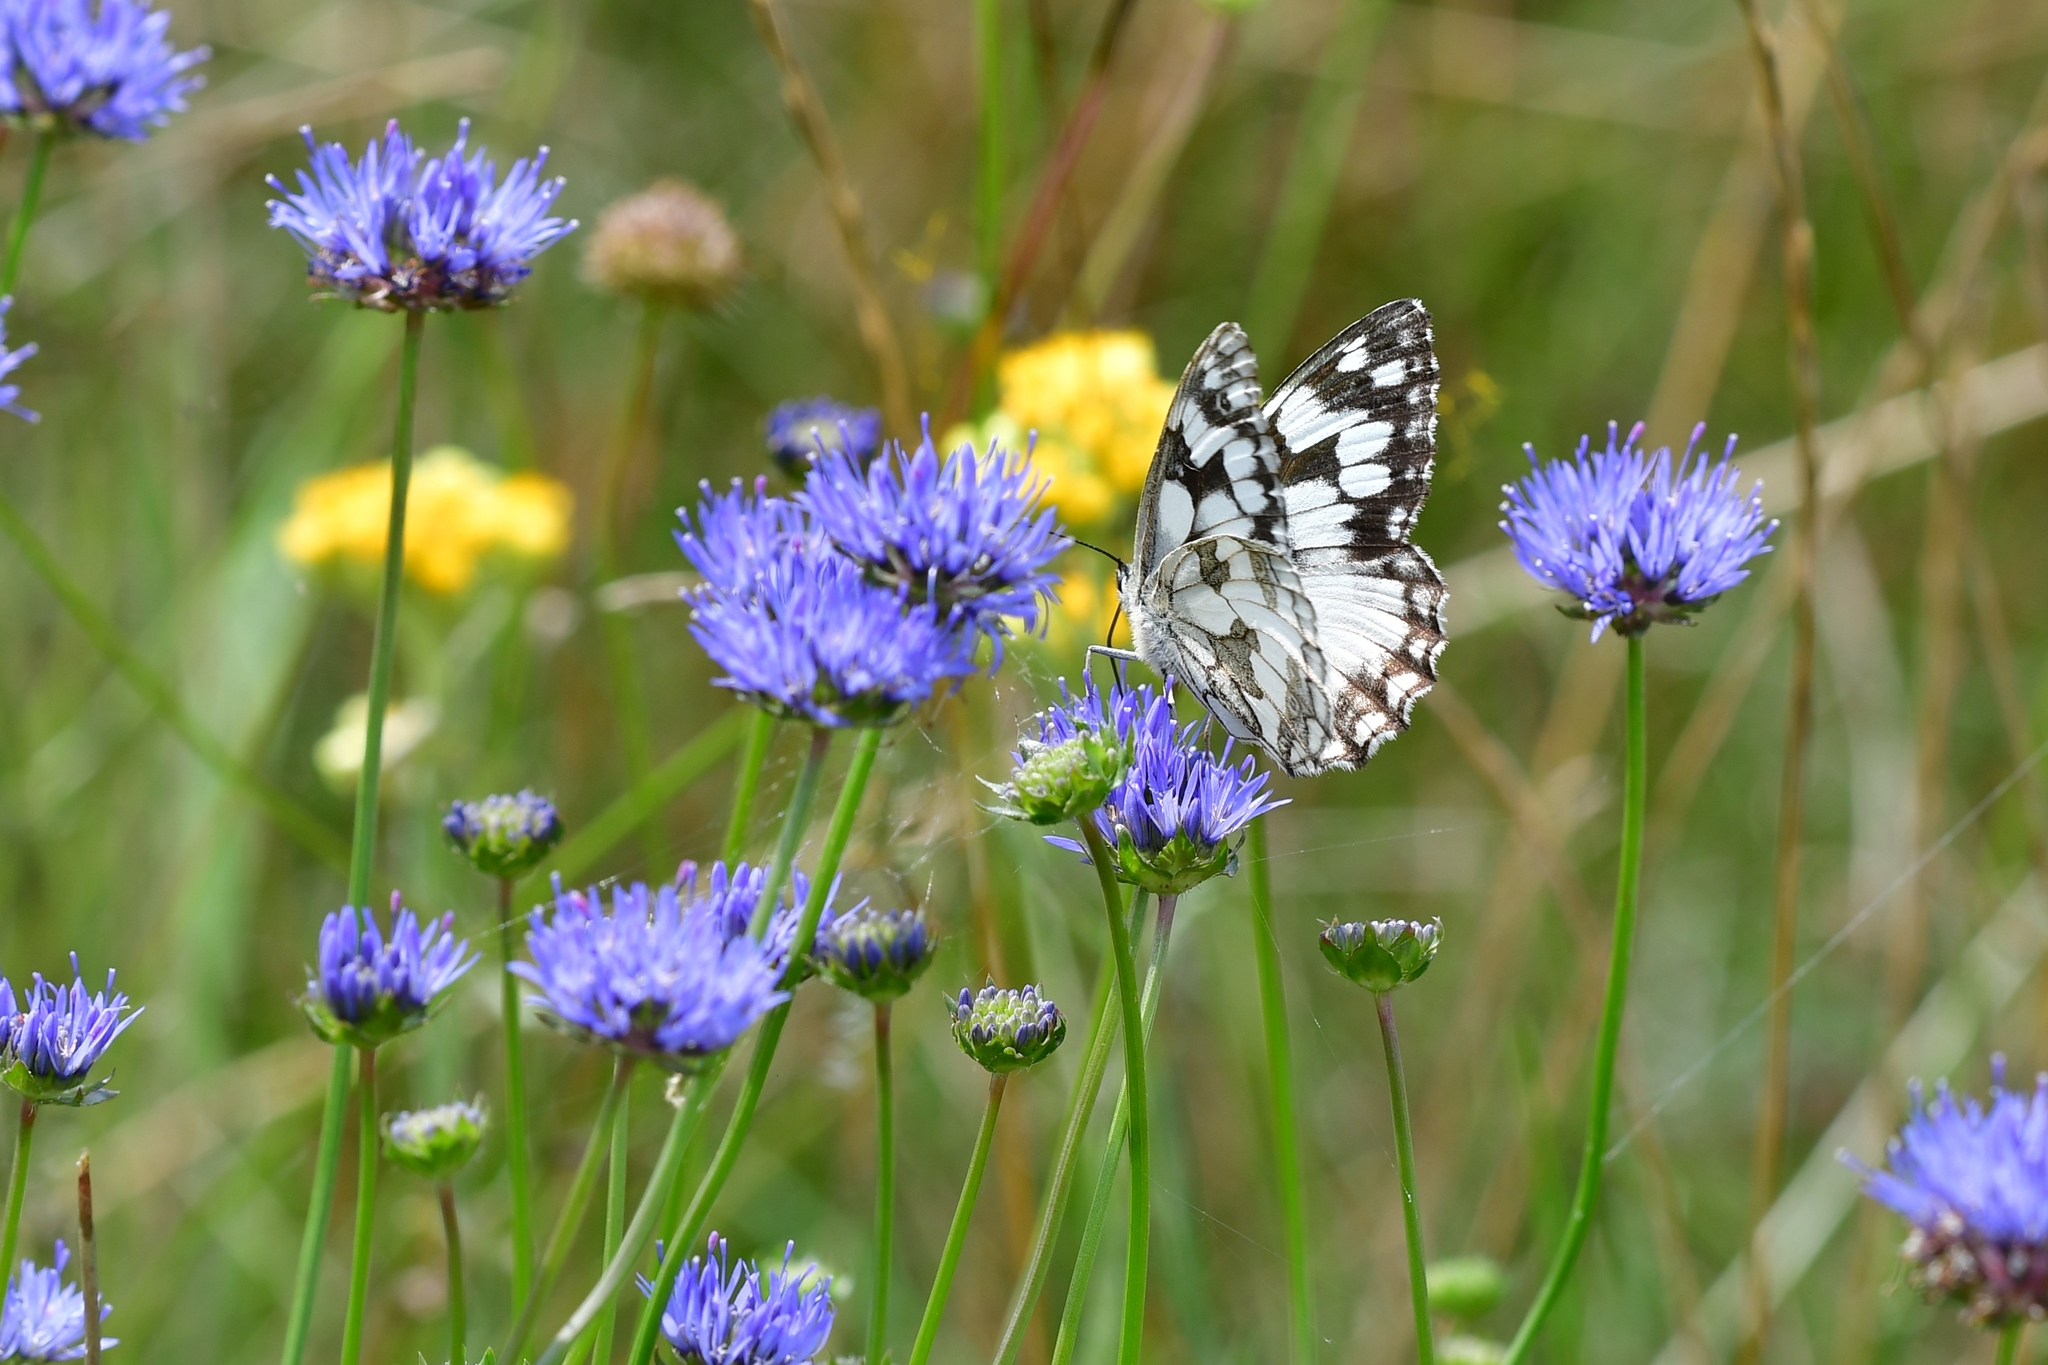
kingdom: Animalia
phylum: Arthropoda
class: Insecta
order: Lepidoptera
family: Nymphalidae
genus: Melanargia
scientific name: Melanargia galathea
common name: Marbled white
